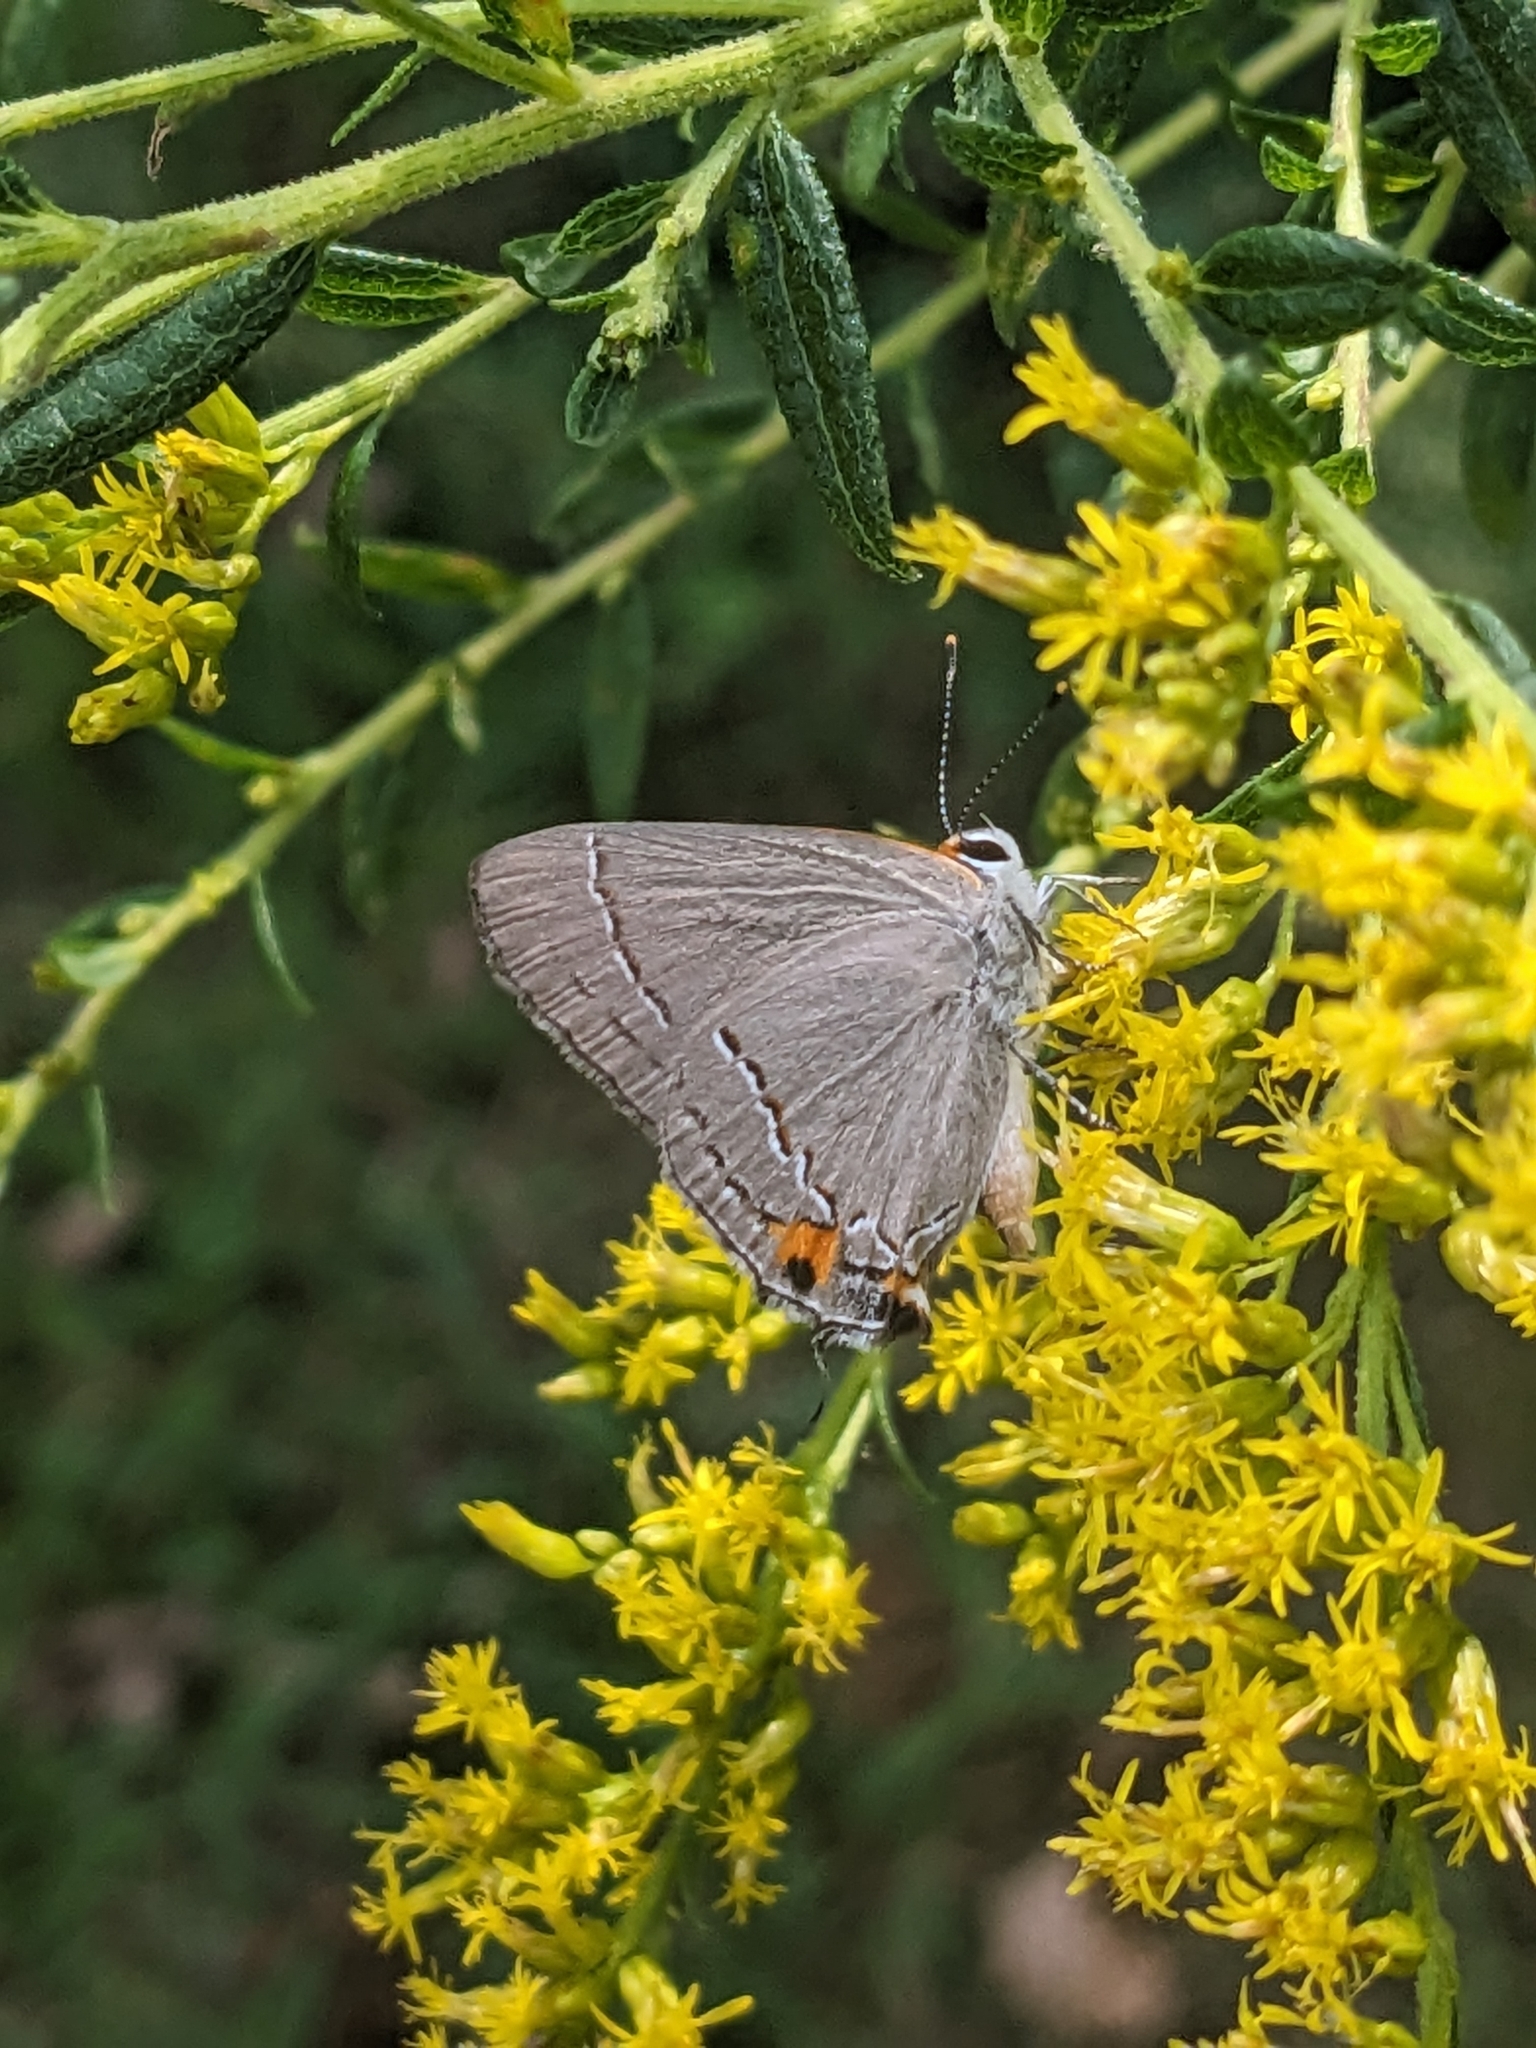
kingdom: Animalia
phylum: Arthropoda
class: Insecta
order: Lepidoptera
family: Lycaenidae
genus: Strymon
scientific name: Strymon melinus
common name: Gray hairstreak
